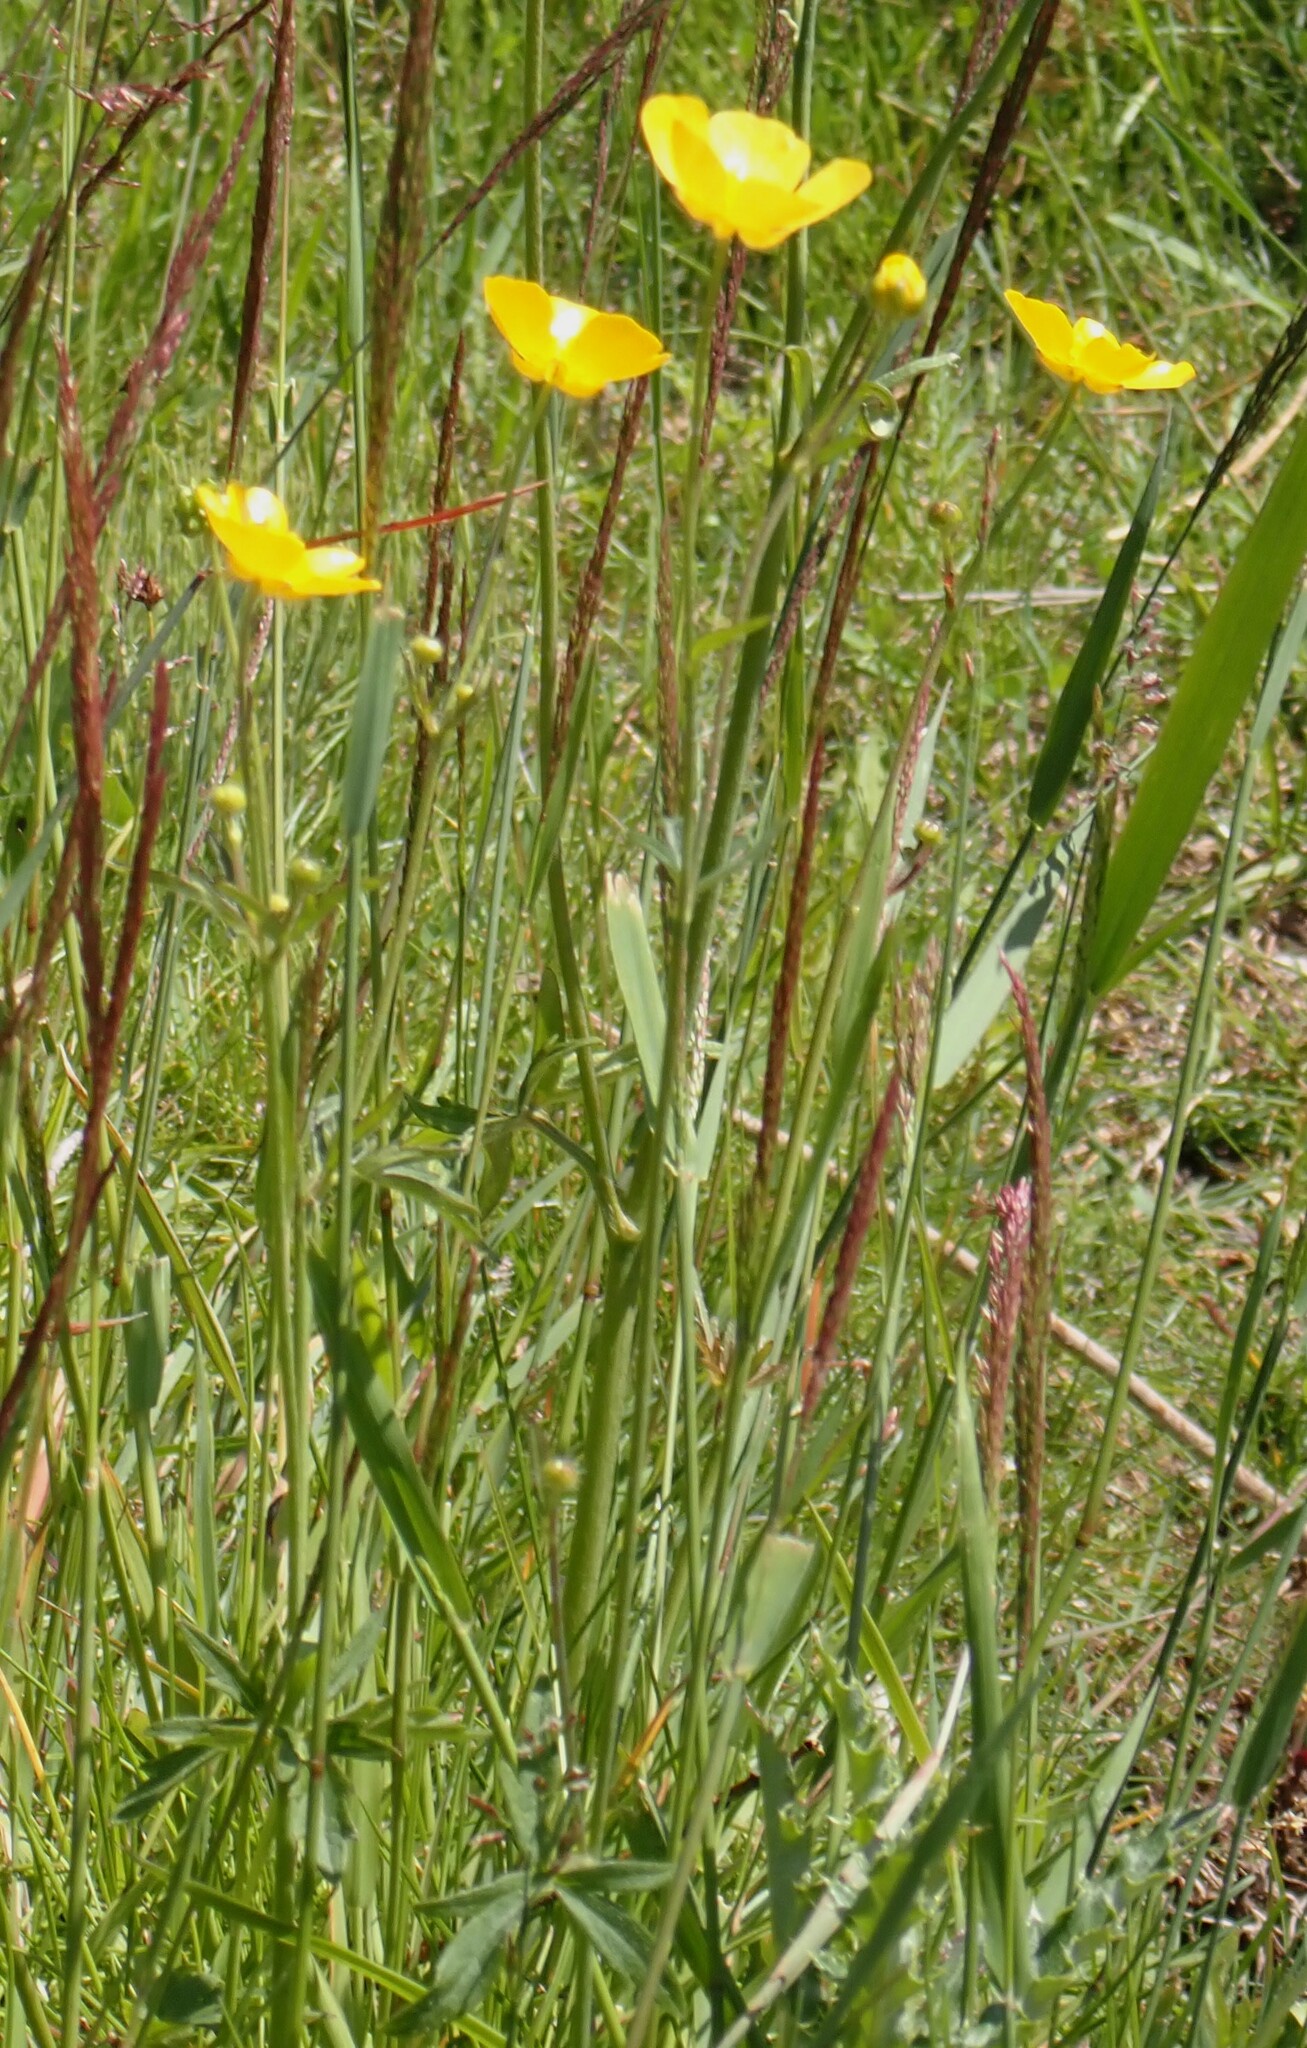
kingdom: Plantae
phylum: Tracheophyta
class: Magnoliopsida
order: Ranunculales
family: Ranunculaceae
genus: Ranunculus
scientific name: Ranunculus acris
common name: Meadow buttercup
